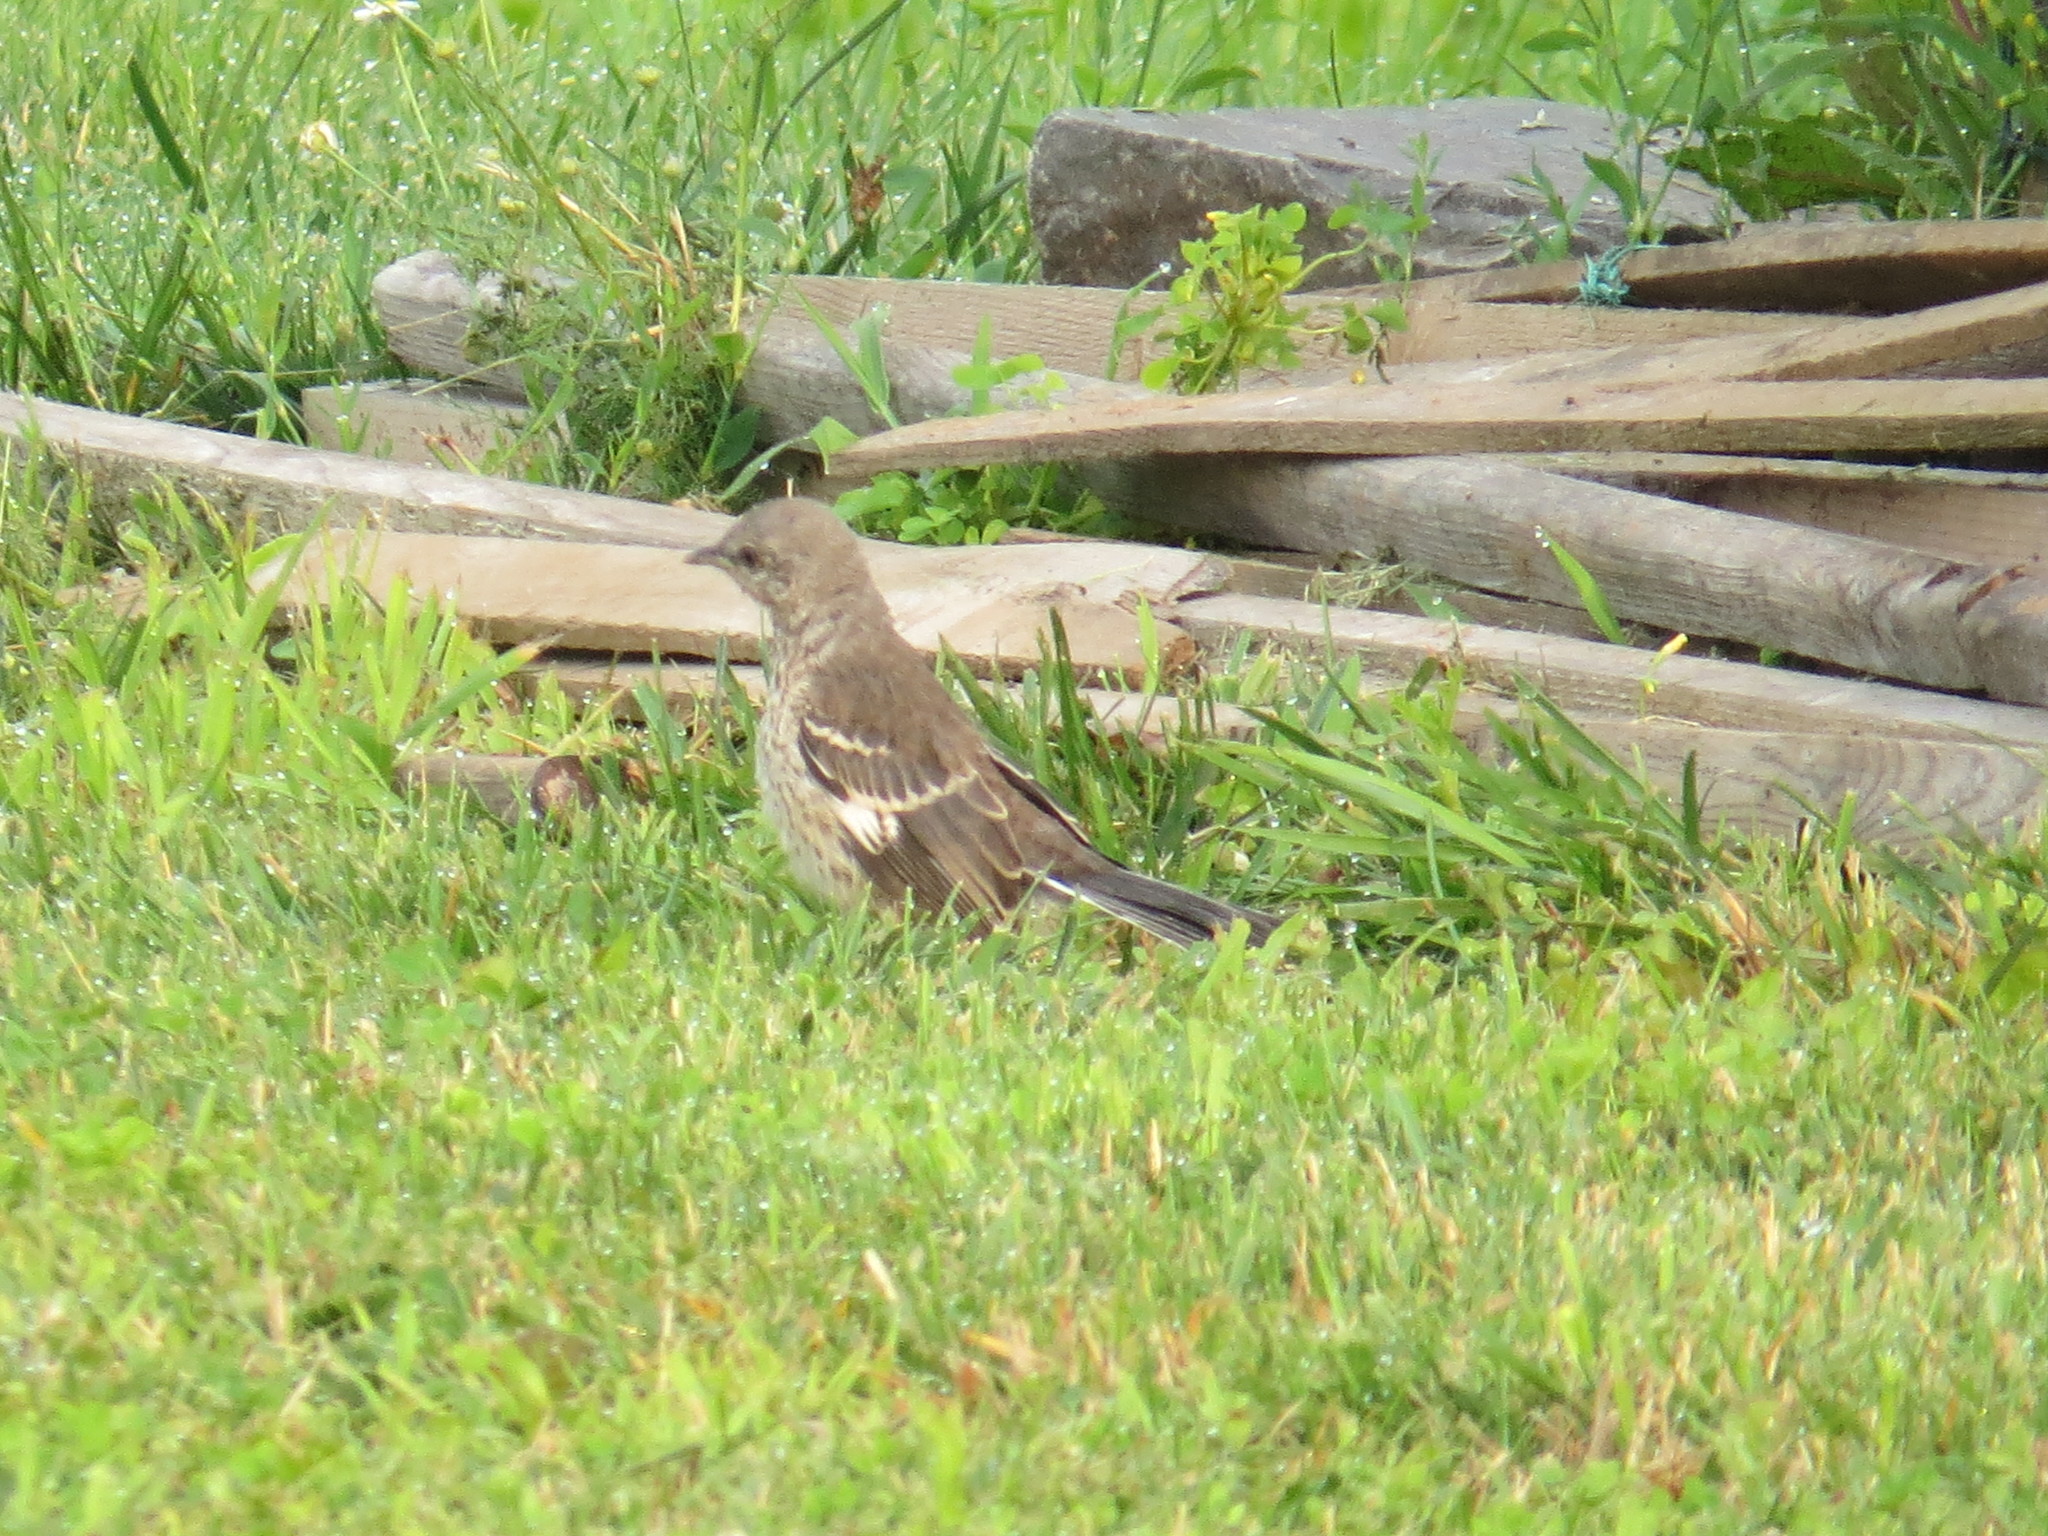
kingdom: Animalia
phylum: Chordata
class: Aves
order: Passeriformes
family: Mimidae
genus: Mimus
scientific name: Mimus polyglottos
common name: Northern mockingbird
